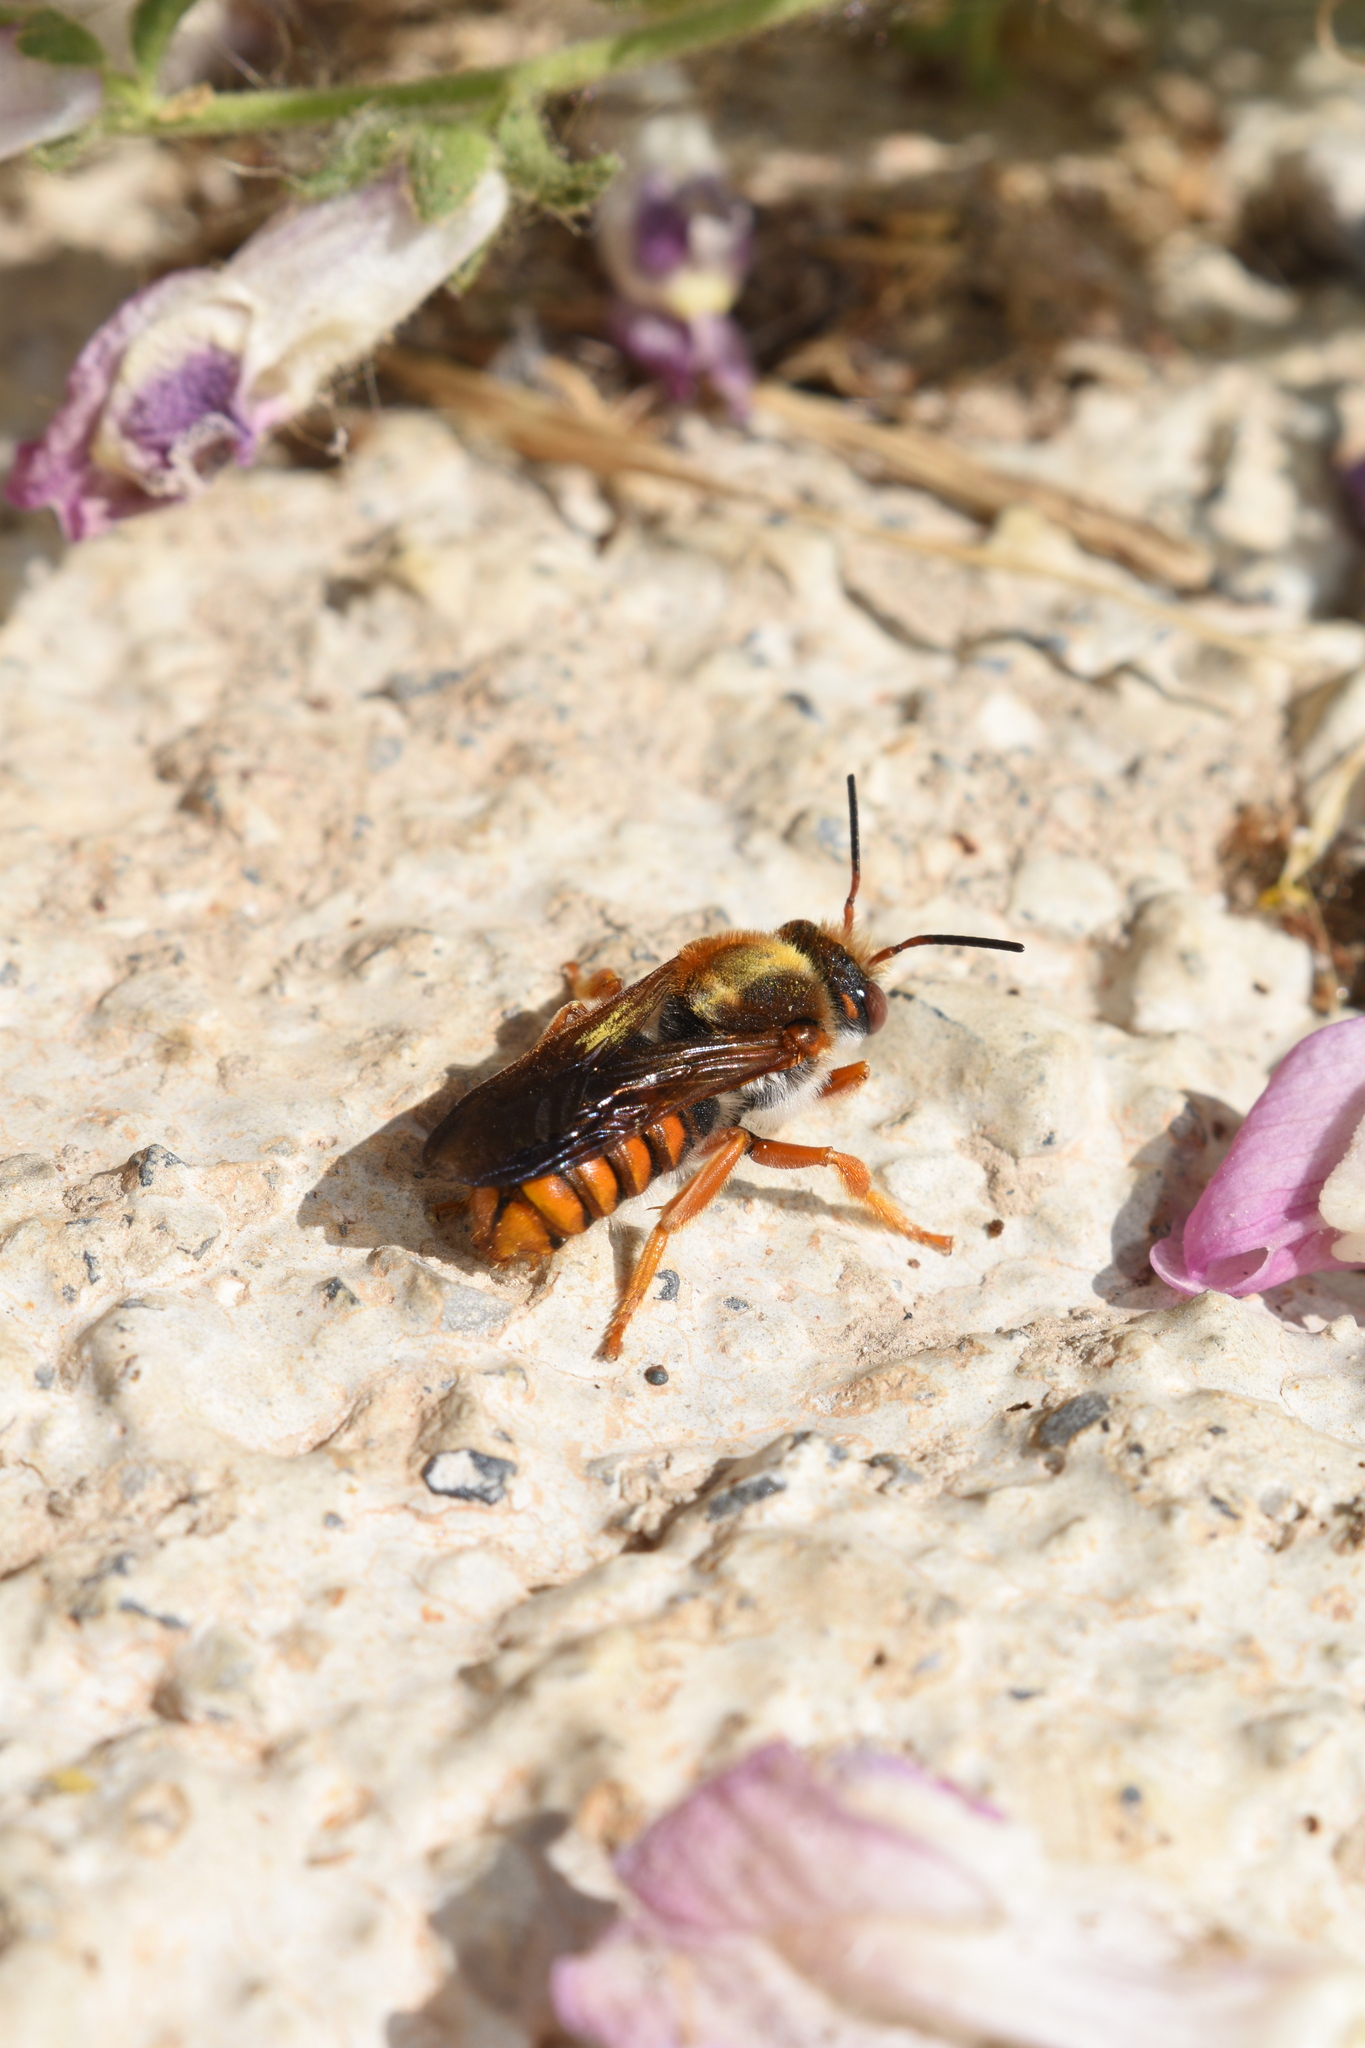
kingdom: Animalia
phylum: Arthropoda
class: Insecta
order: Hymenoptera
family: Megachilidae
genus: Rhodanthidium
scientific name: Rhodanthidium sticticum
